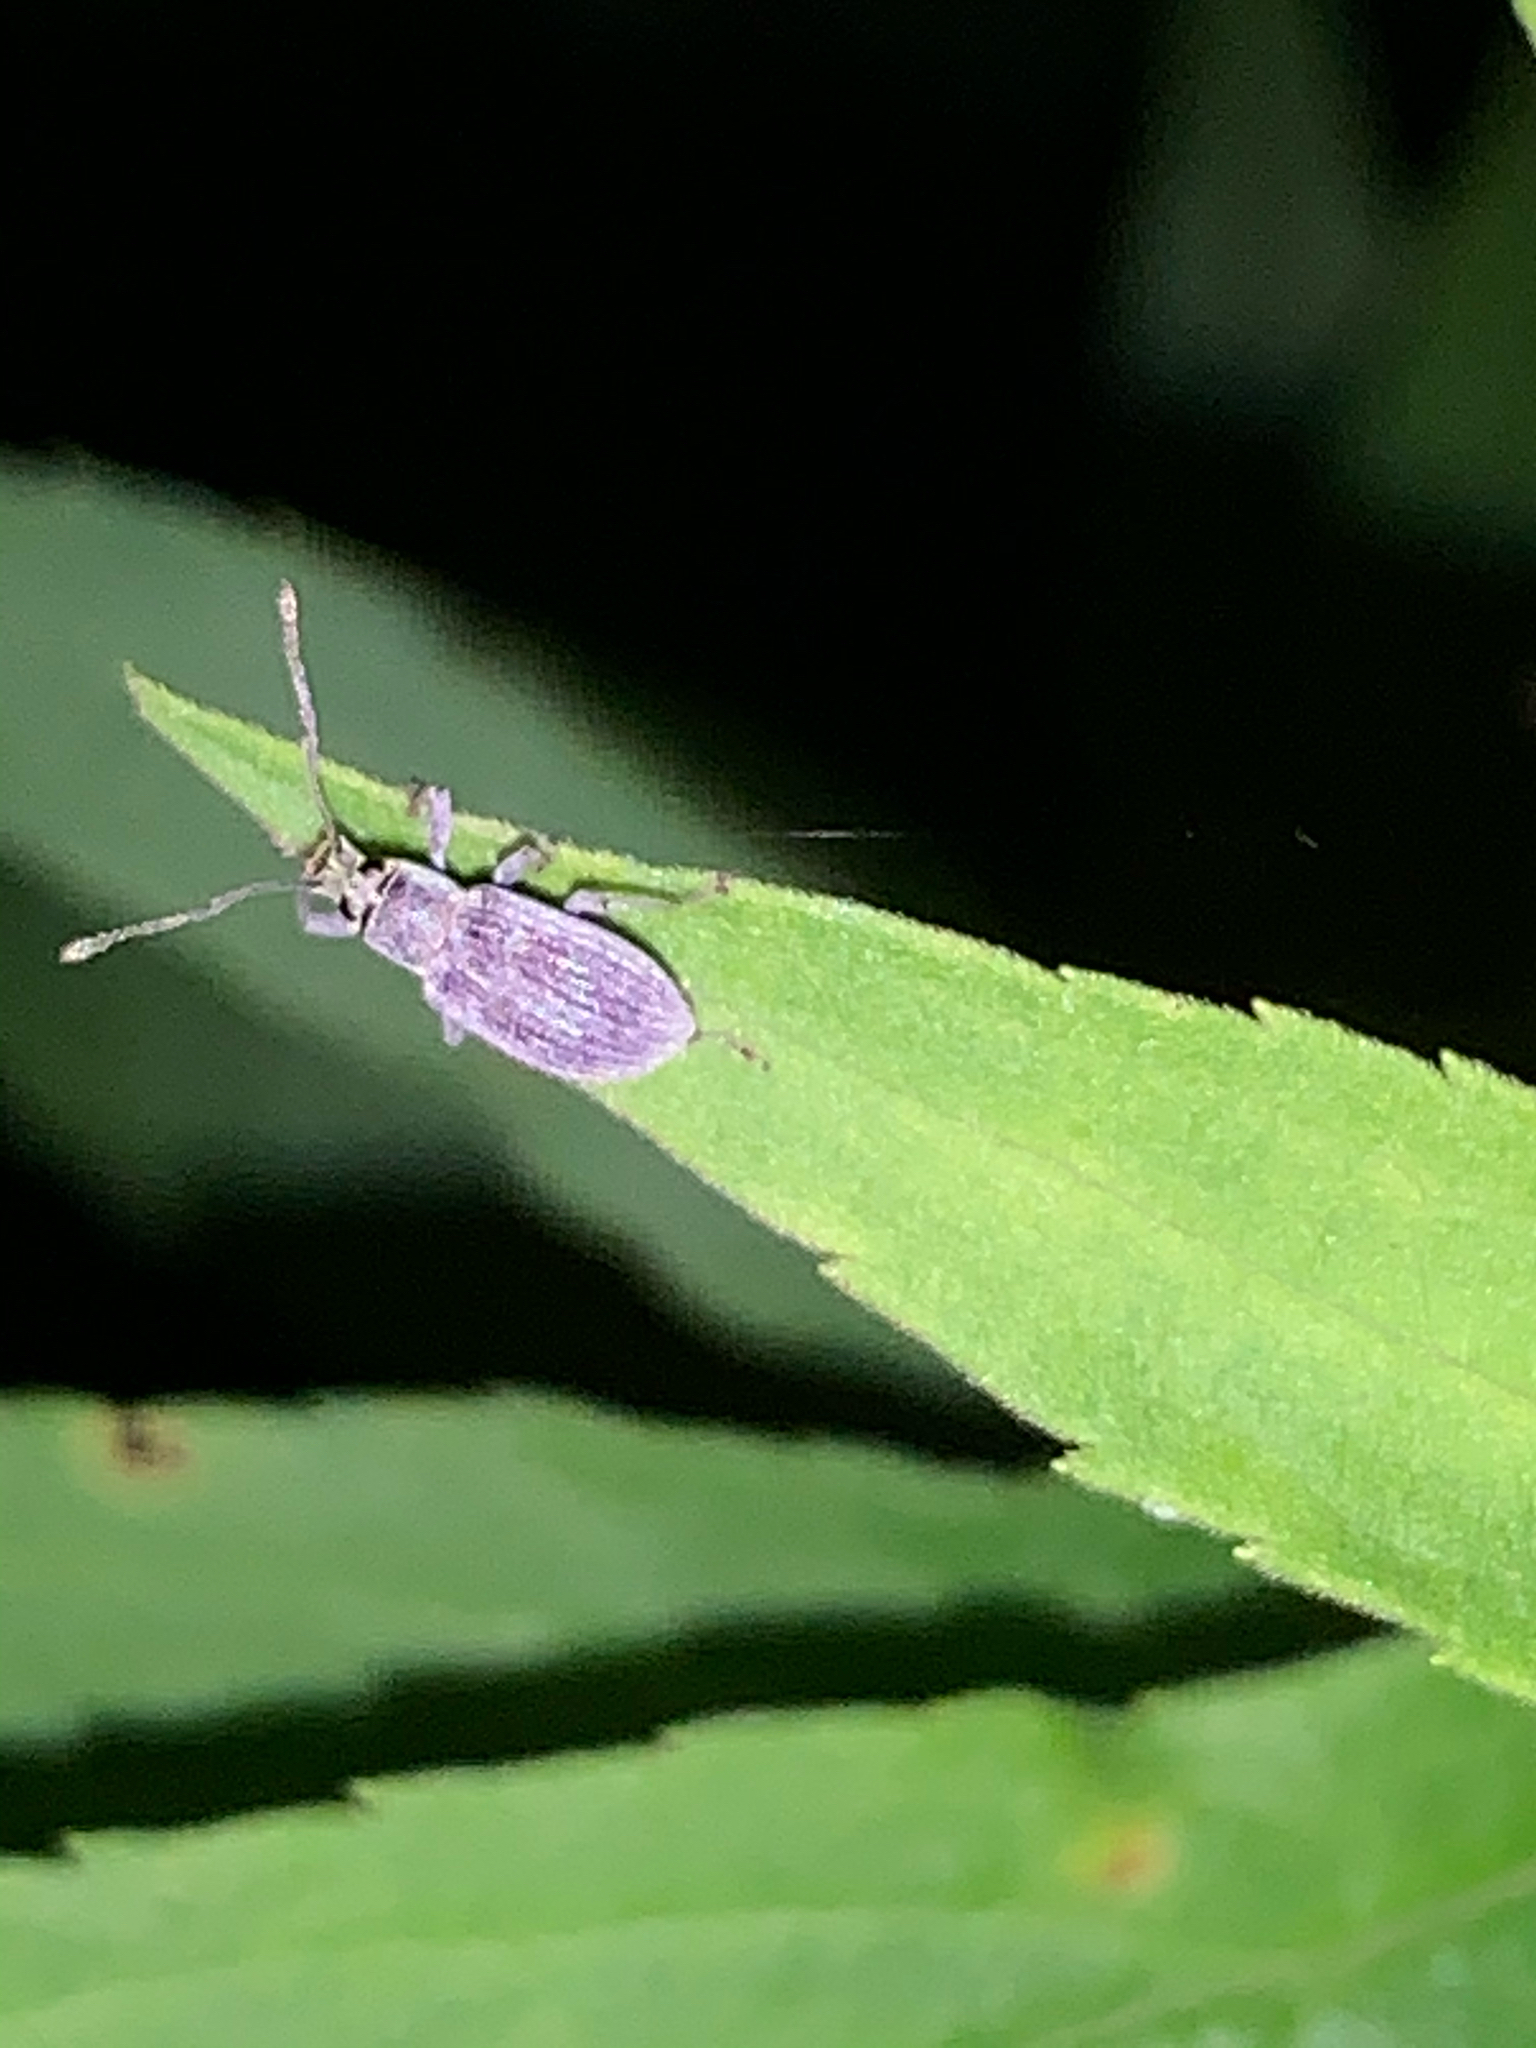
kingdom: Animalia
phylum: Arthropoda
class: Insecta
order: Coleoptera
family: Curculionidae
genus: Cyrtepistomus
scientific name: Cyrtepistomus castaneus
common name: Weevil
